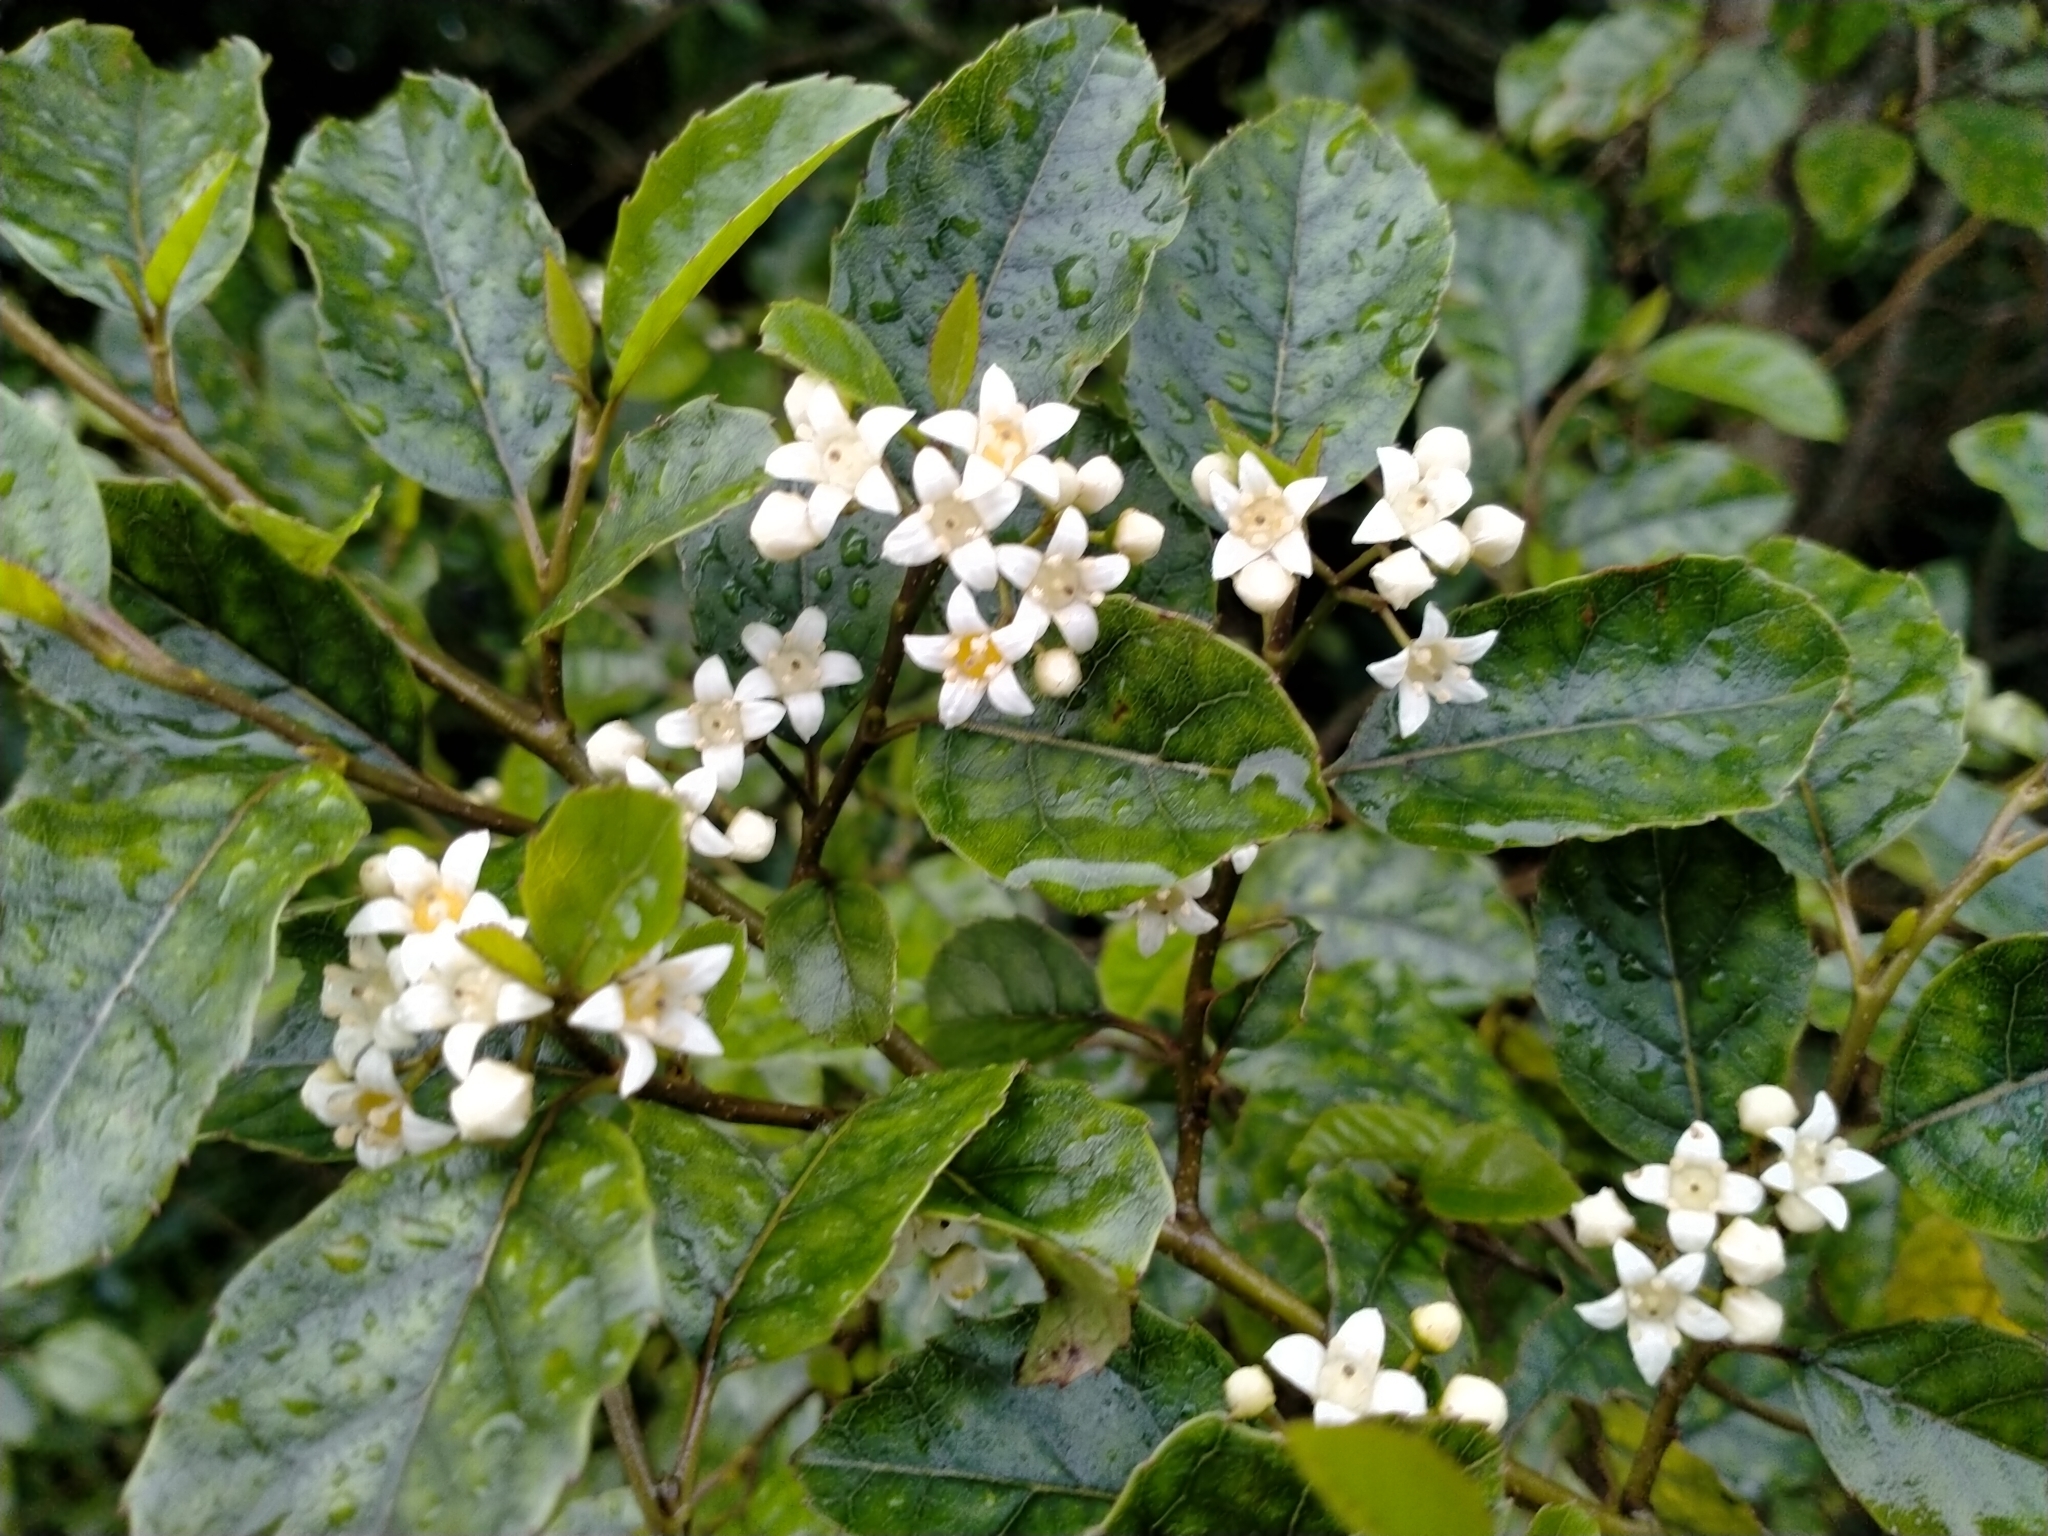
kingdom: Plantae
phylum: Tracheophyta
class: Magnoliopsida
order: Asterales
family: Rousseaceae
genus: Carpodetus
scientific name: Carpodetus serratus
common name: White mapau
